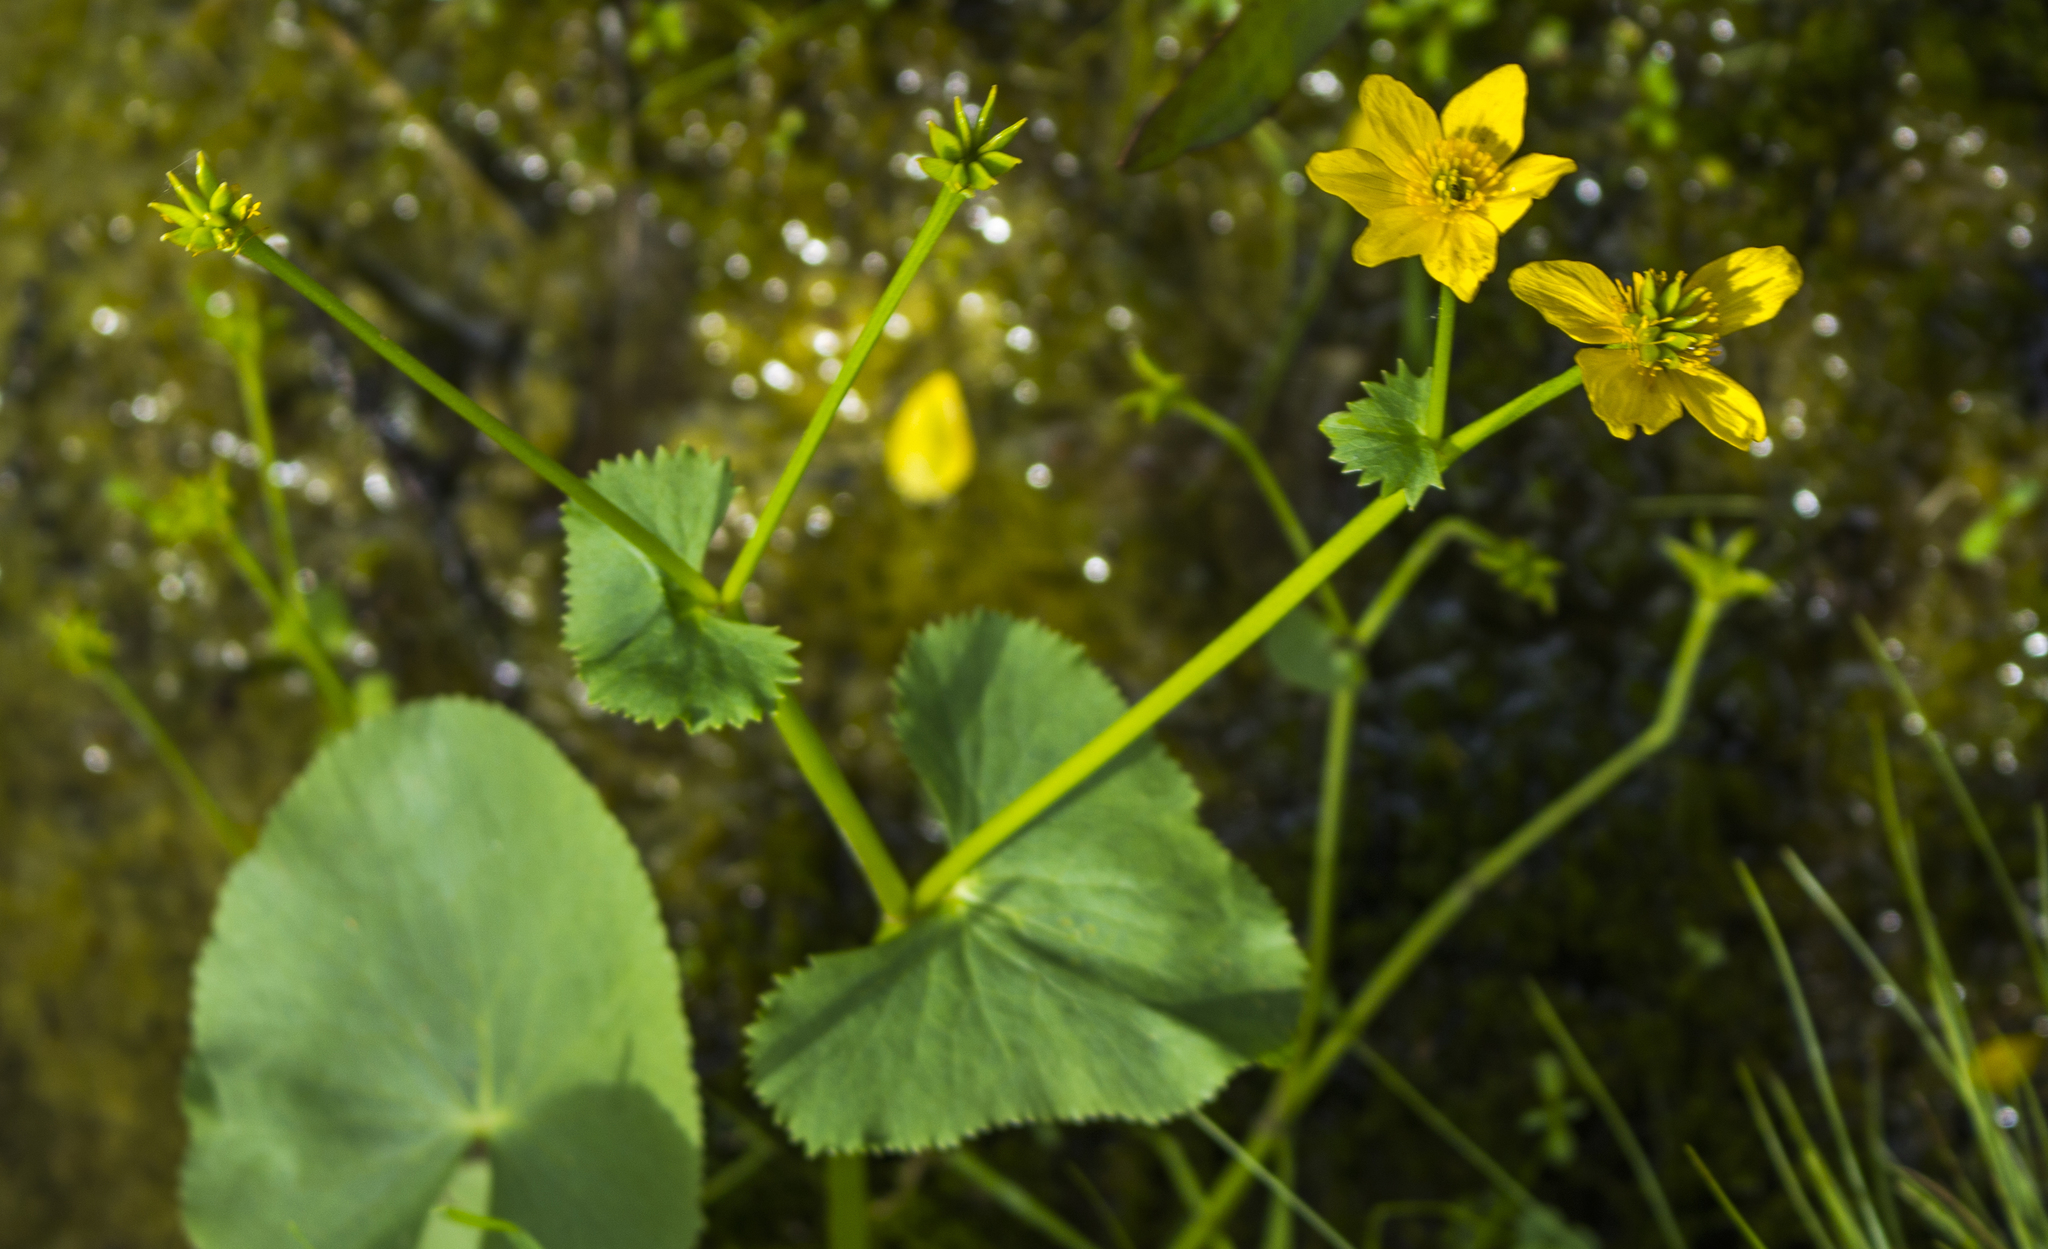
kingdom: Plantae
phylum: Tracheophyta
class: Magnoliopsida
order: Ranunculales
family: Ranunculaceae
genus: Caltha
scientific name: Caltha palustris
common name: Marsh marigold
